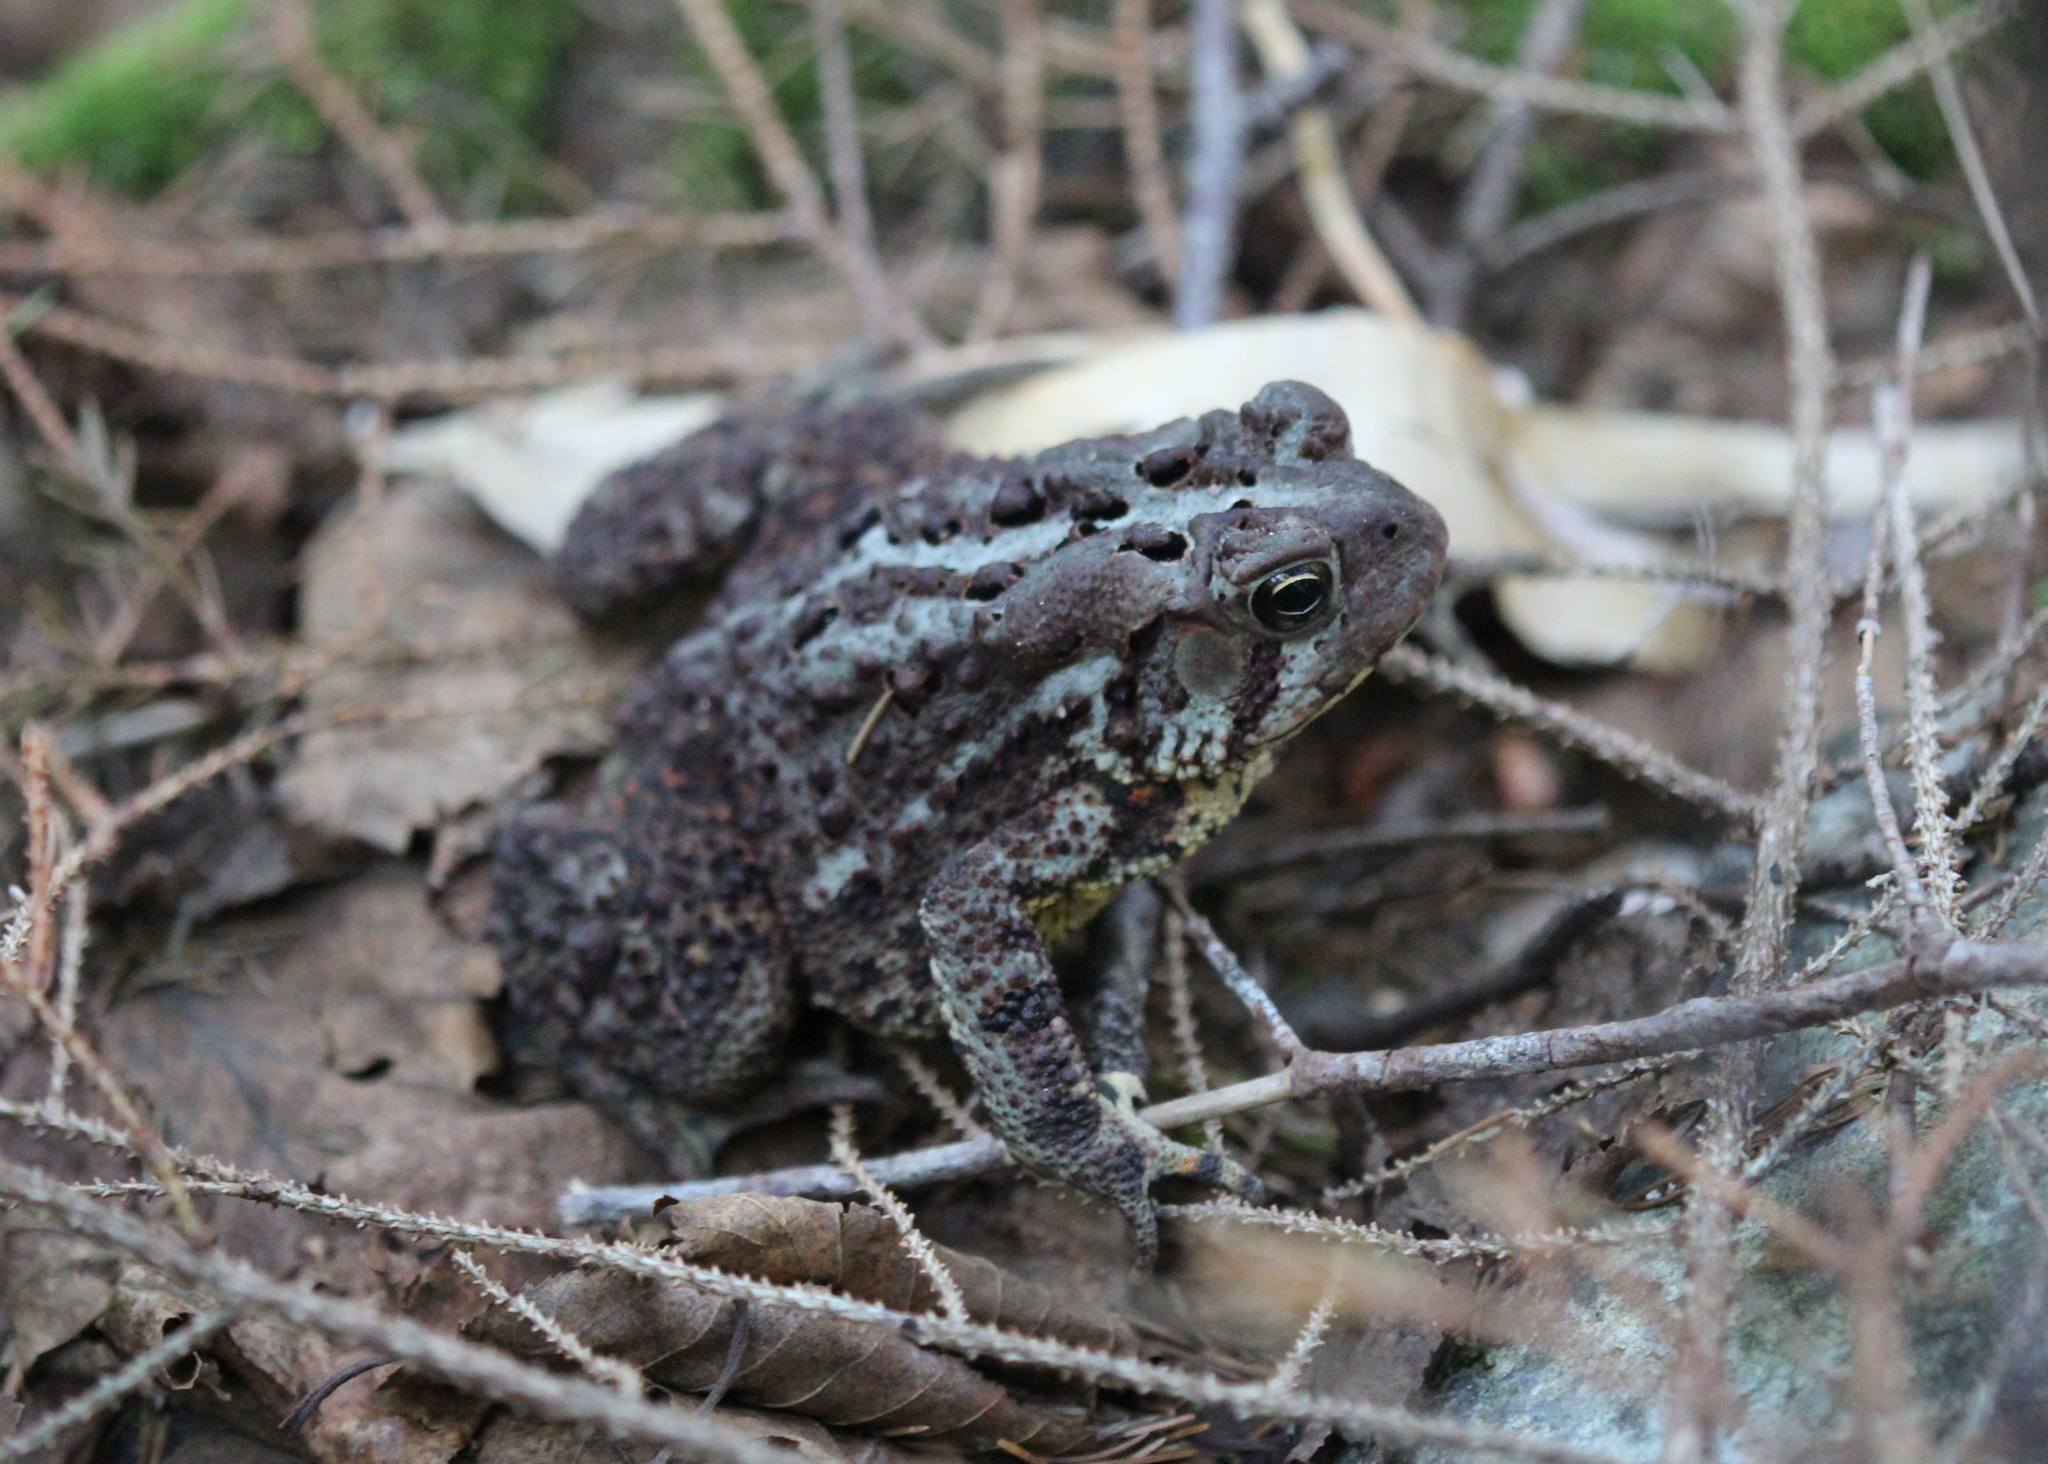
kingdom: Animalia
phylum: Chordata
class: Amphibia
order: Anura
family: Bufonidae
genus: Anaxyrus
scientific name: Anaxyrus americanus
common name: American toad
